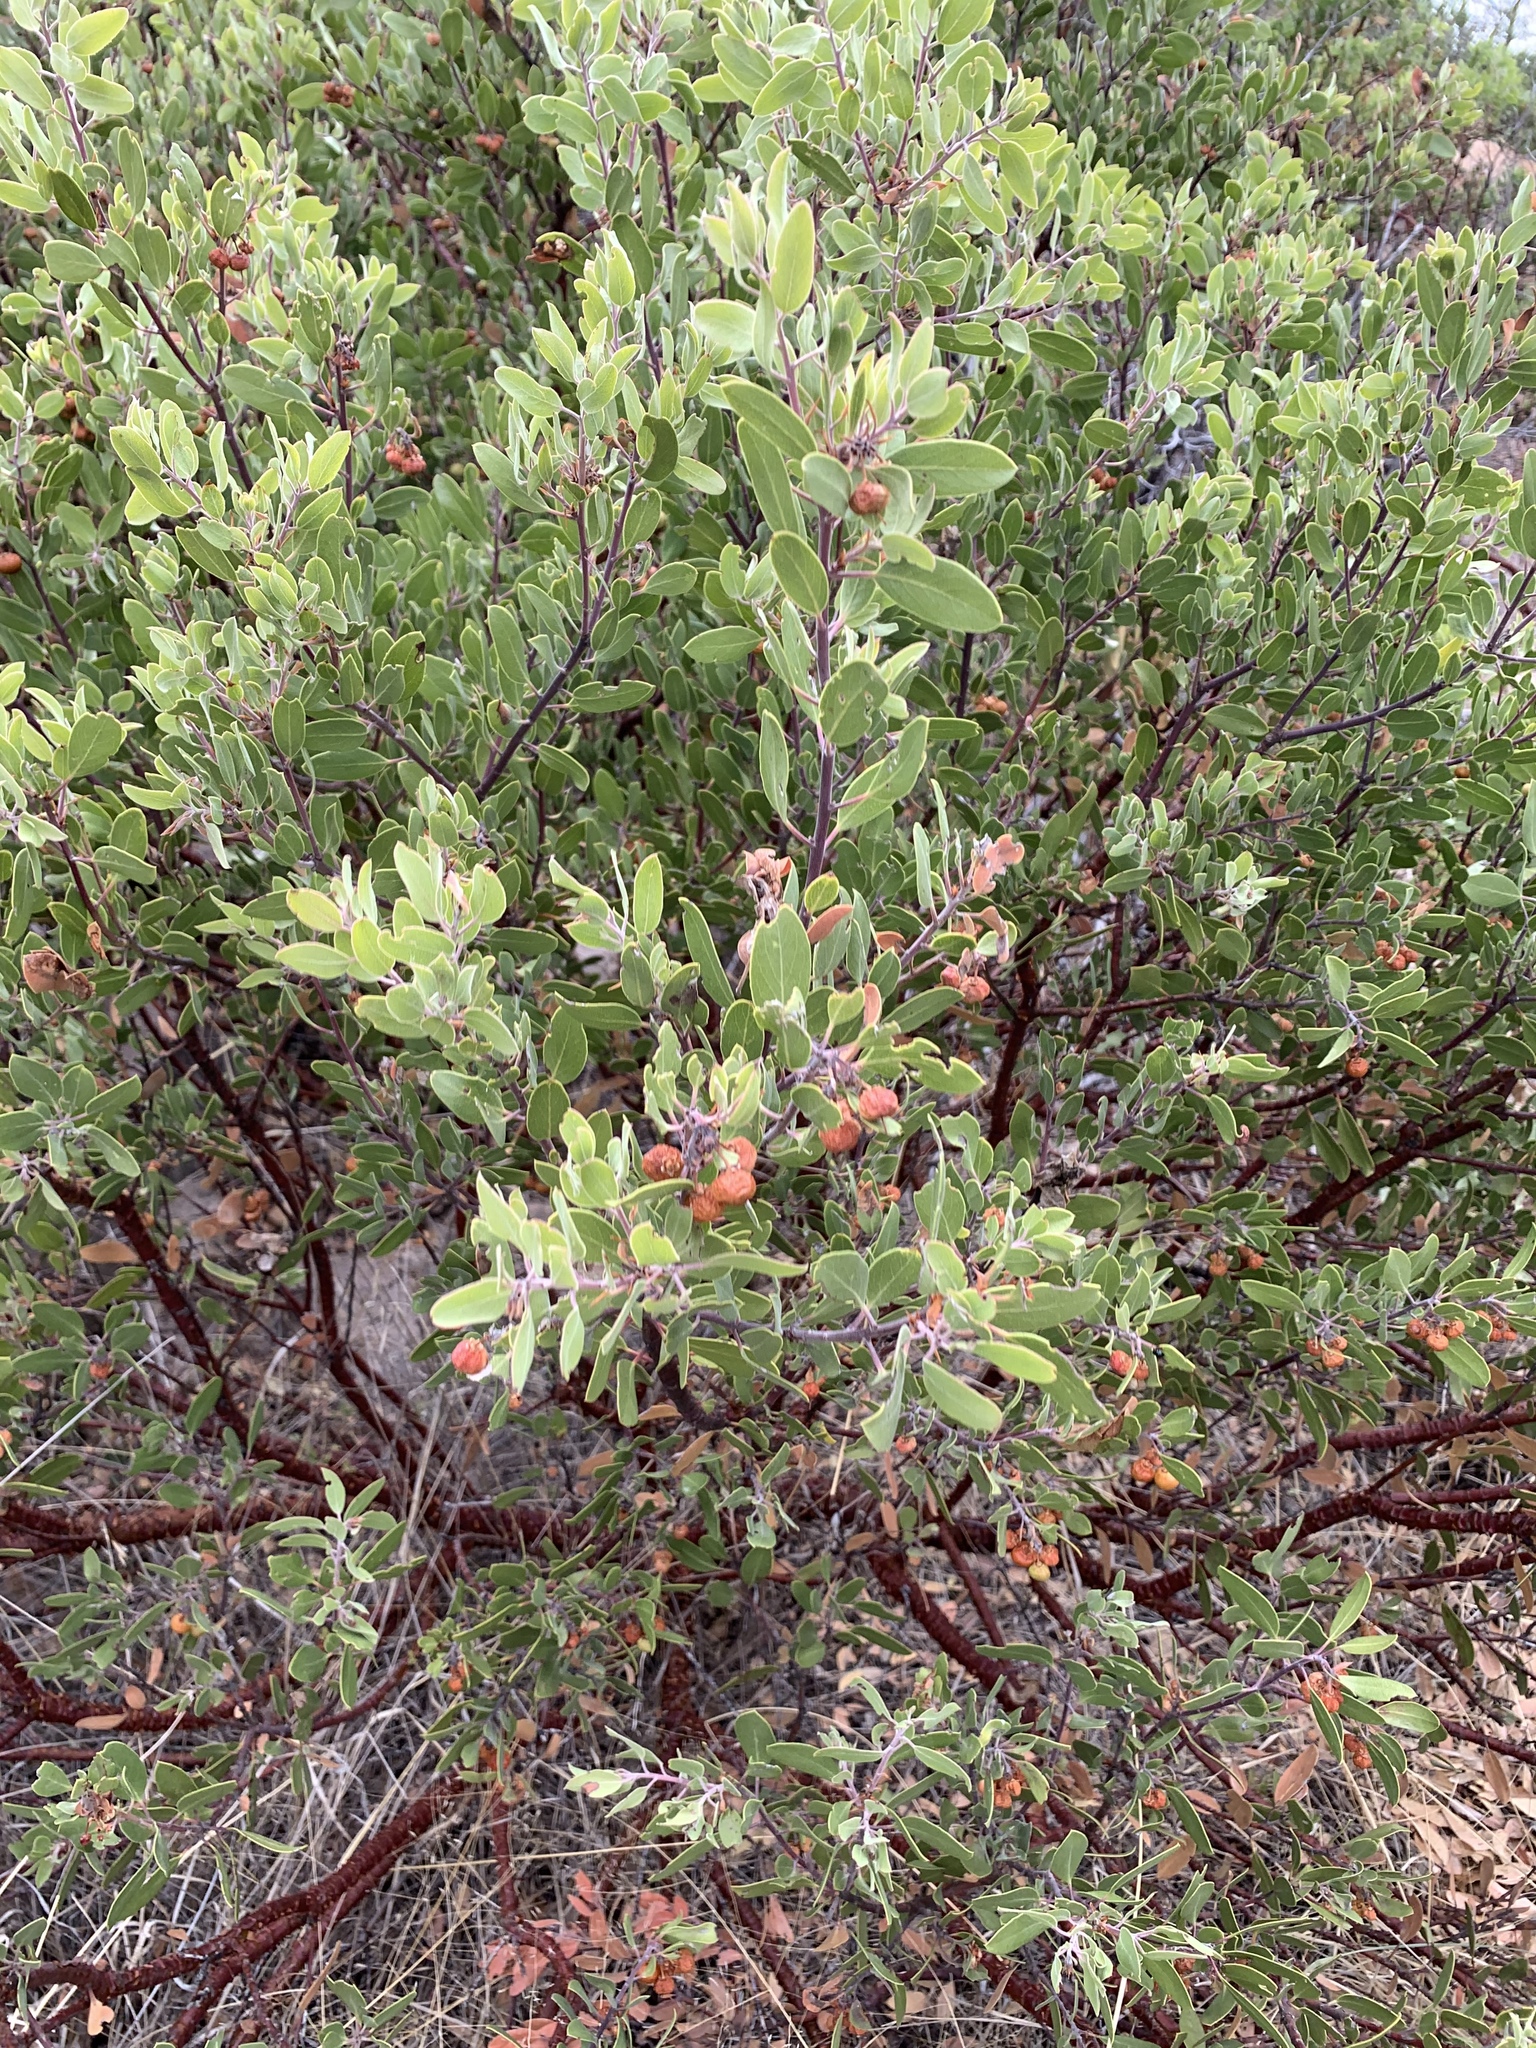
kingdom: Plantae
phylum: Tracheophyta
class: Magnoliopsida
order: Ericales
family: Ericaceae
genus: Arctostaphylos
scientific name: Arctostaphylos pungens
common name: Mexican manzanita
